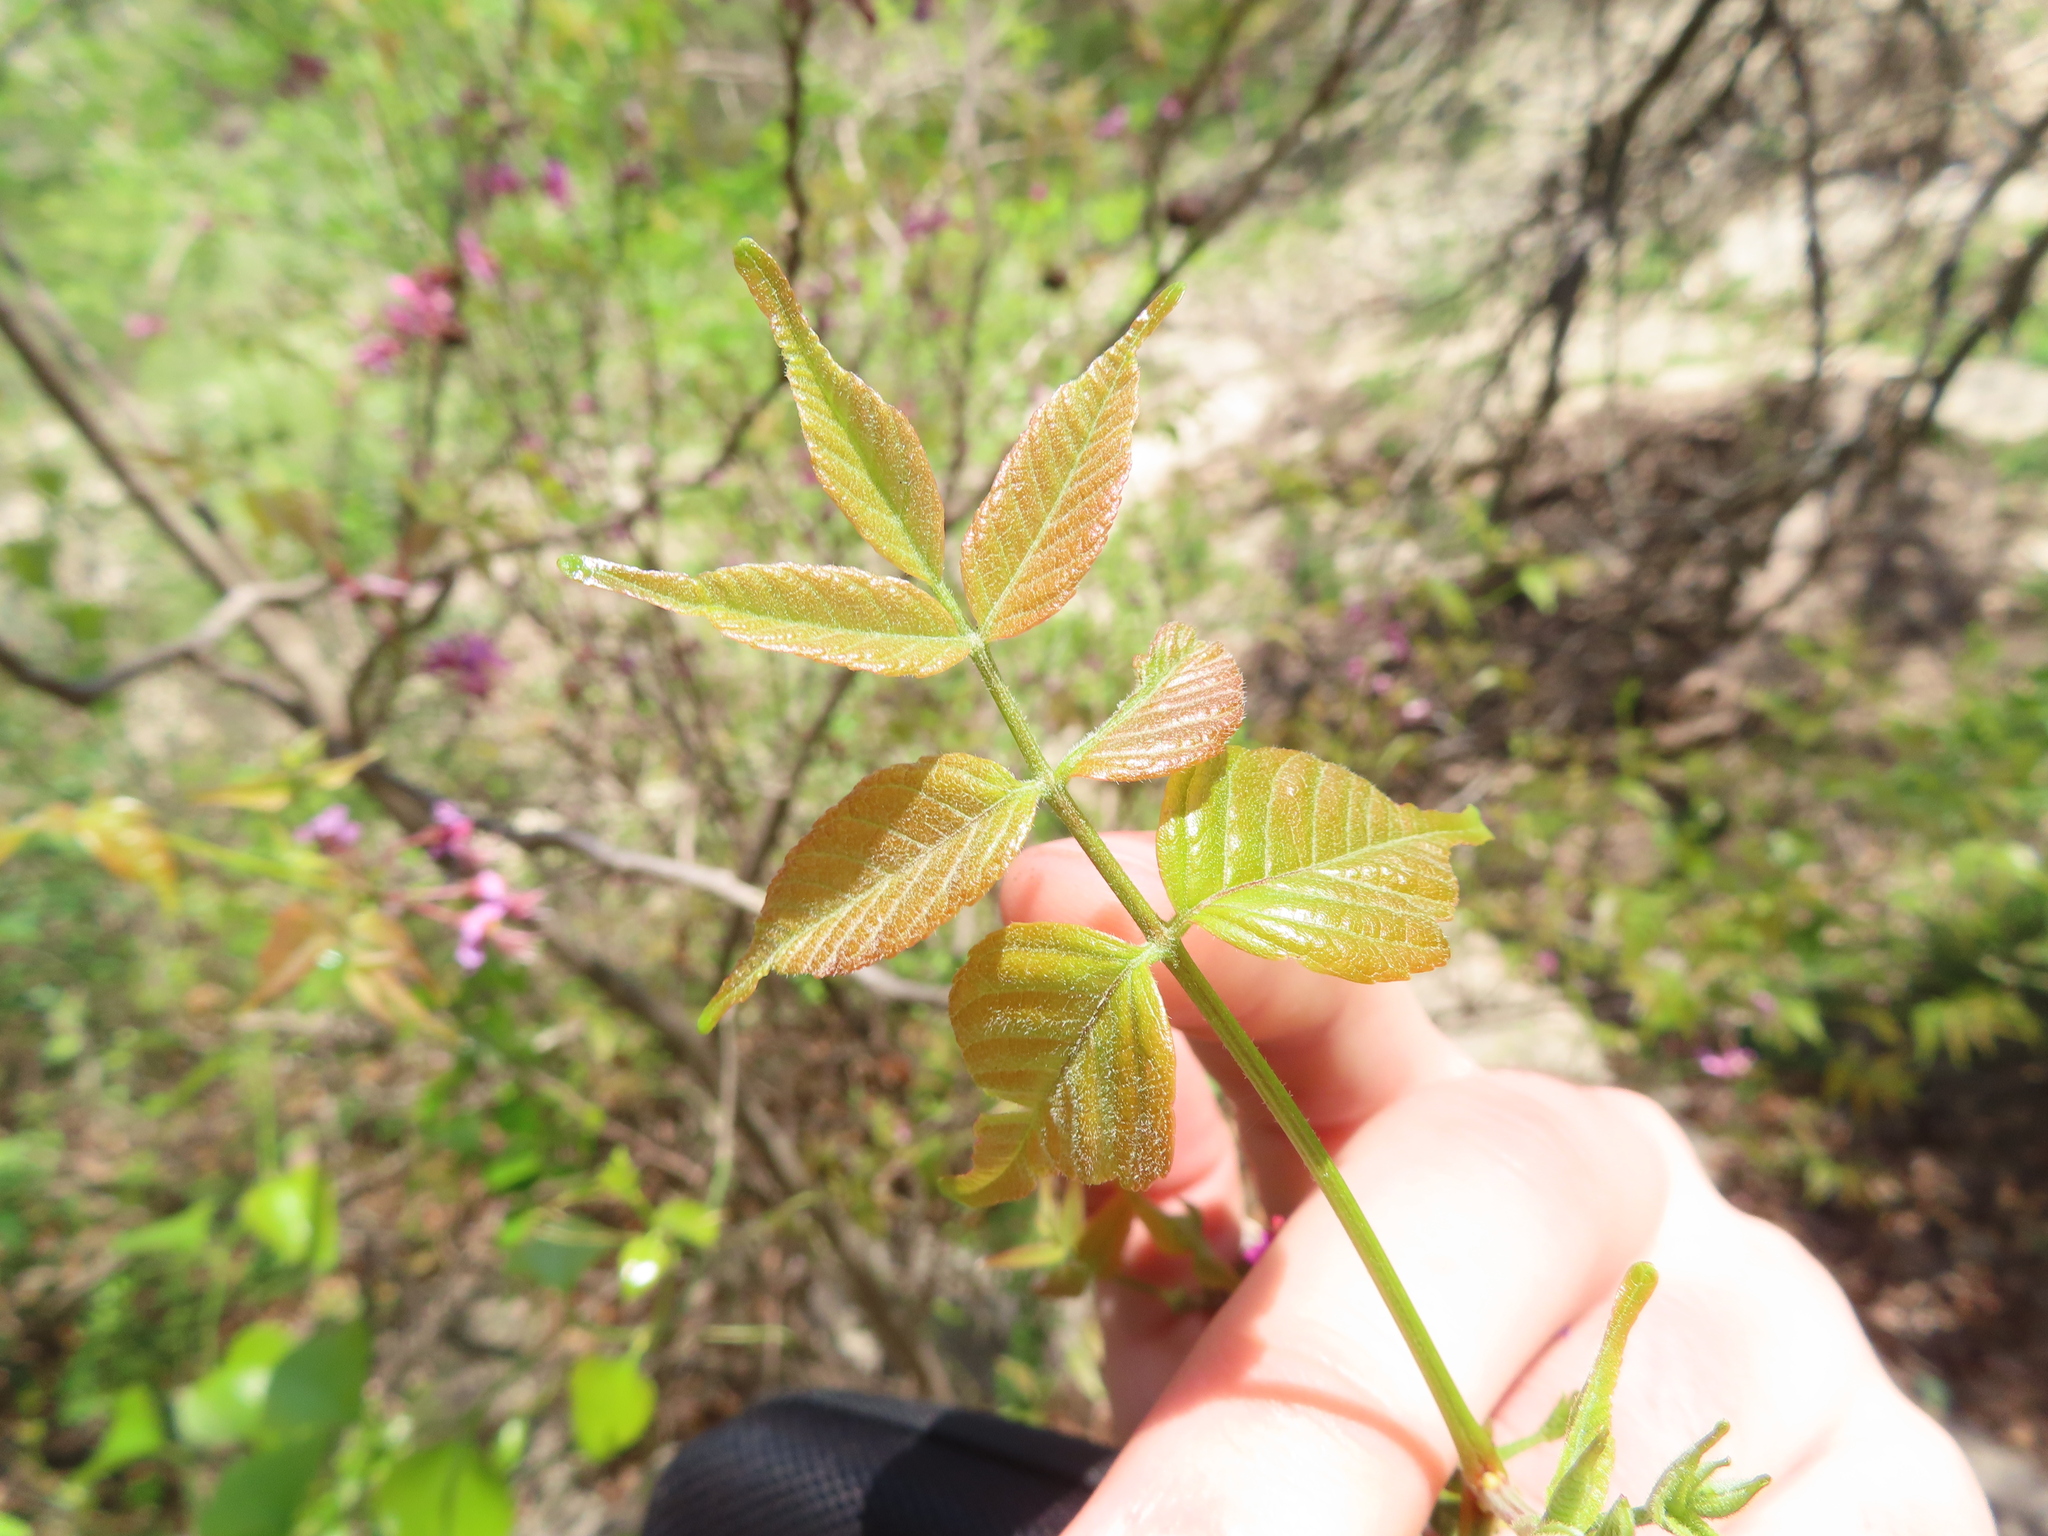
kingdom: Plantae
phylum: Tracheophyta
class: Magnoliopsida
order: Sapindales
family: Sapindaceae
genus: Ungnadia
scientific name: Ungnadia speciosa
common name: Texas-buckeye
